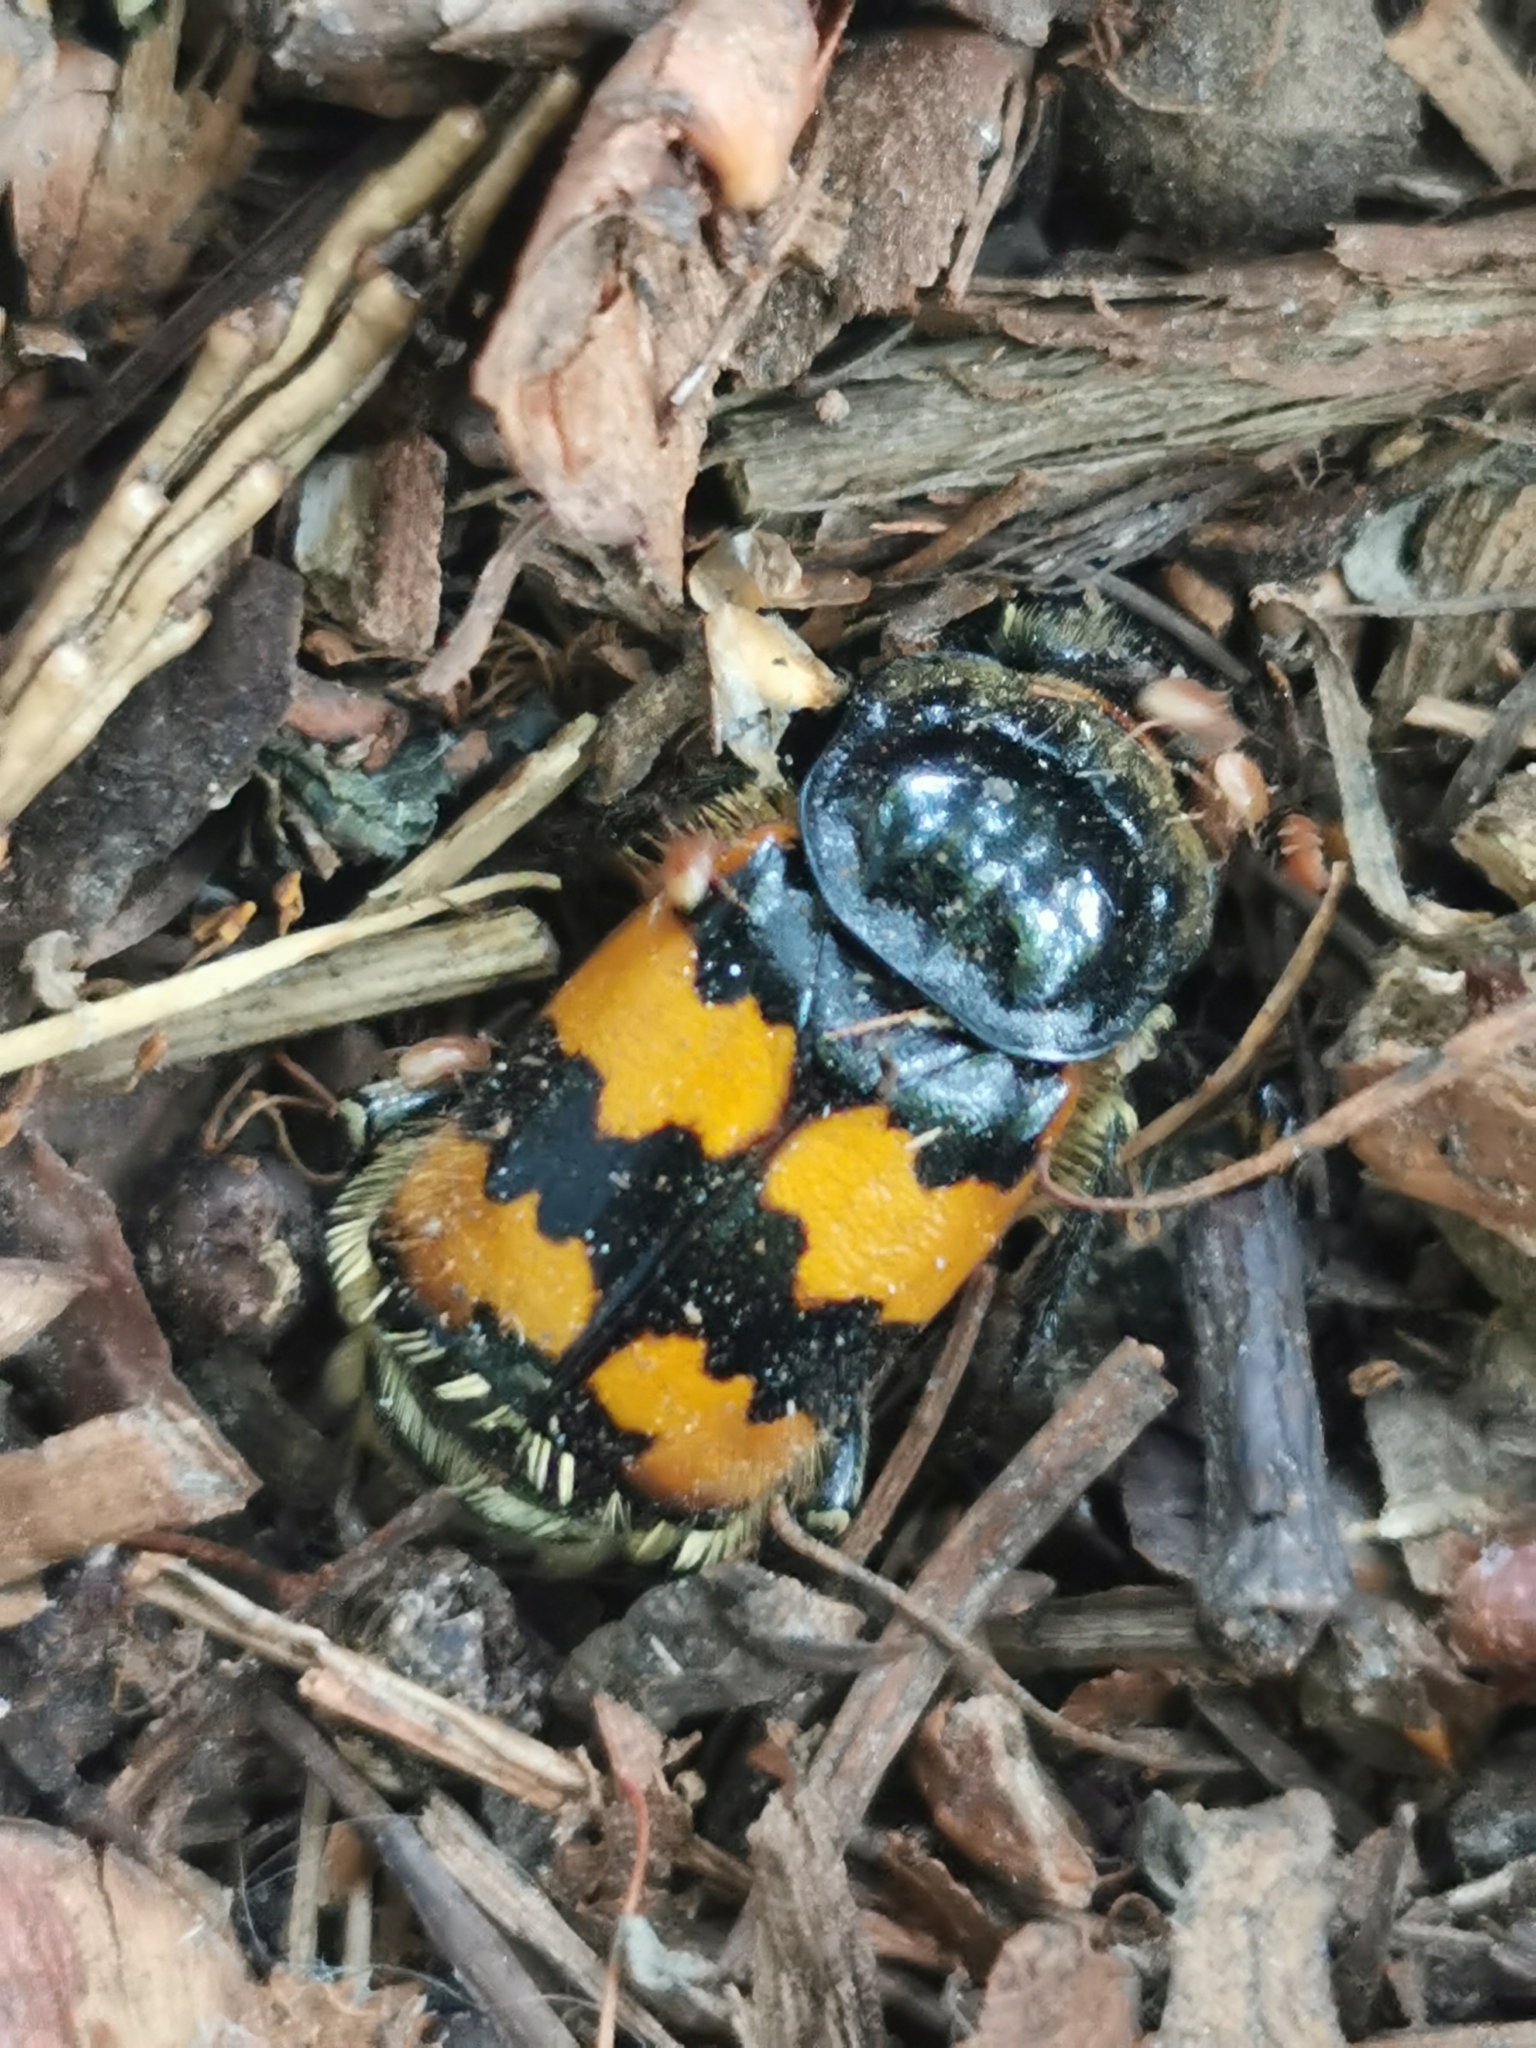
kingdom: Animalia
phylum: Arthropoda
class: Insecta
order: Coleoptera
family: Staphylinidae
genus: Nicrophorus
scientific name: Nicrophorus vespillo
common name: Common burying beetle
